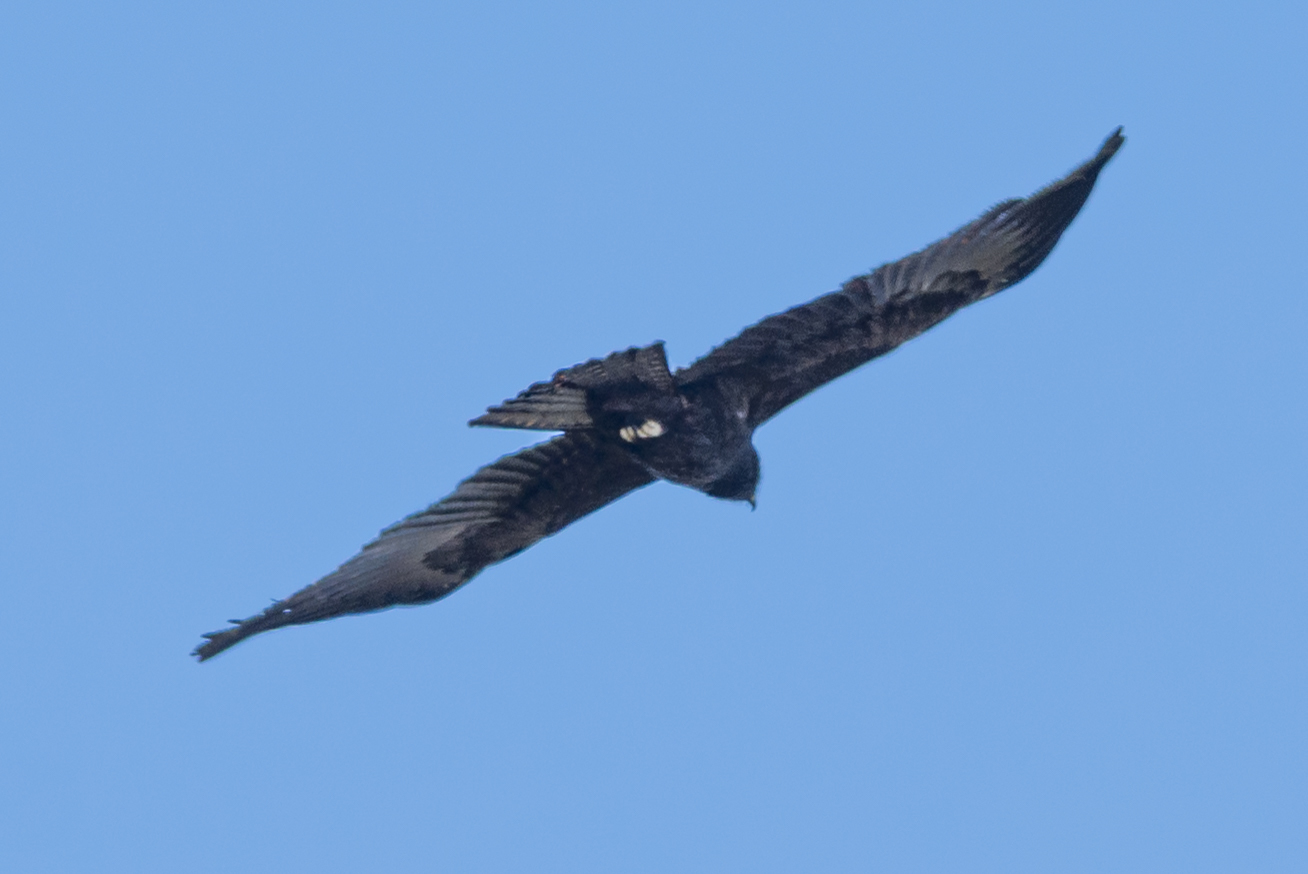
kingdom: Animalia
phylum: Chordata
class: Aves
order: Accipitriformes
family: Accipitridae
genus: Ictinaetus
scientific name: Ictinaetus malayensis
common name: Black eagle
